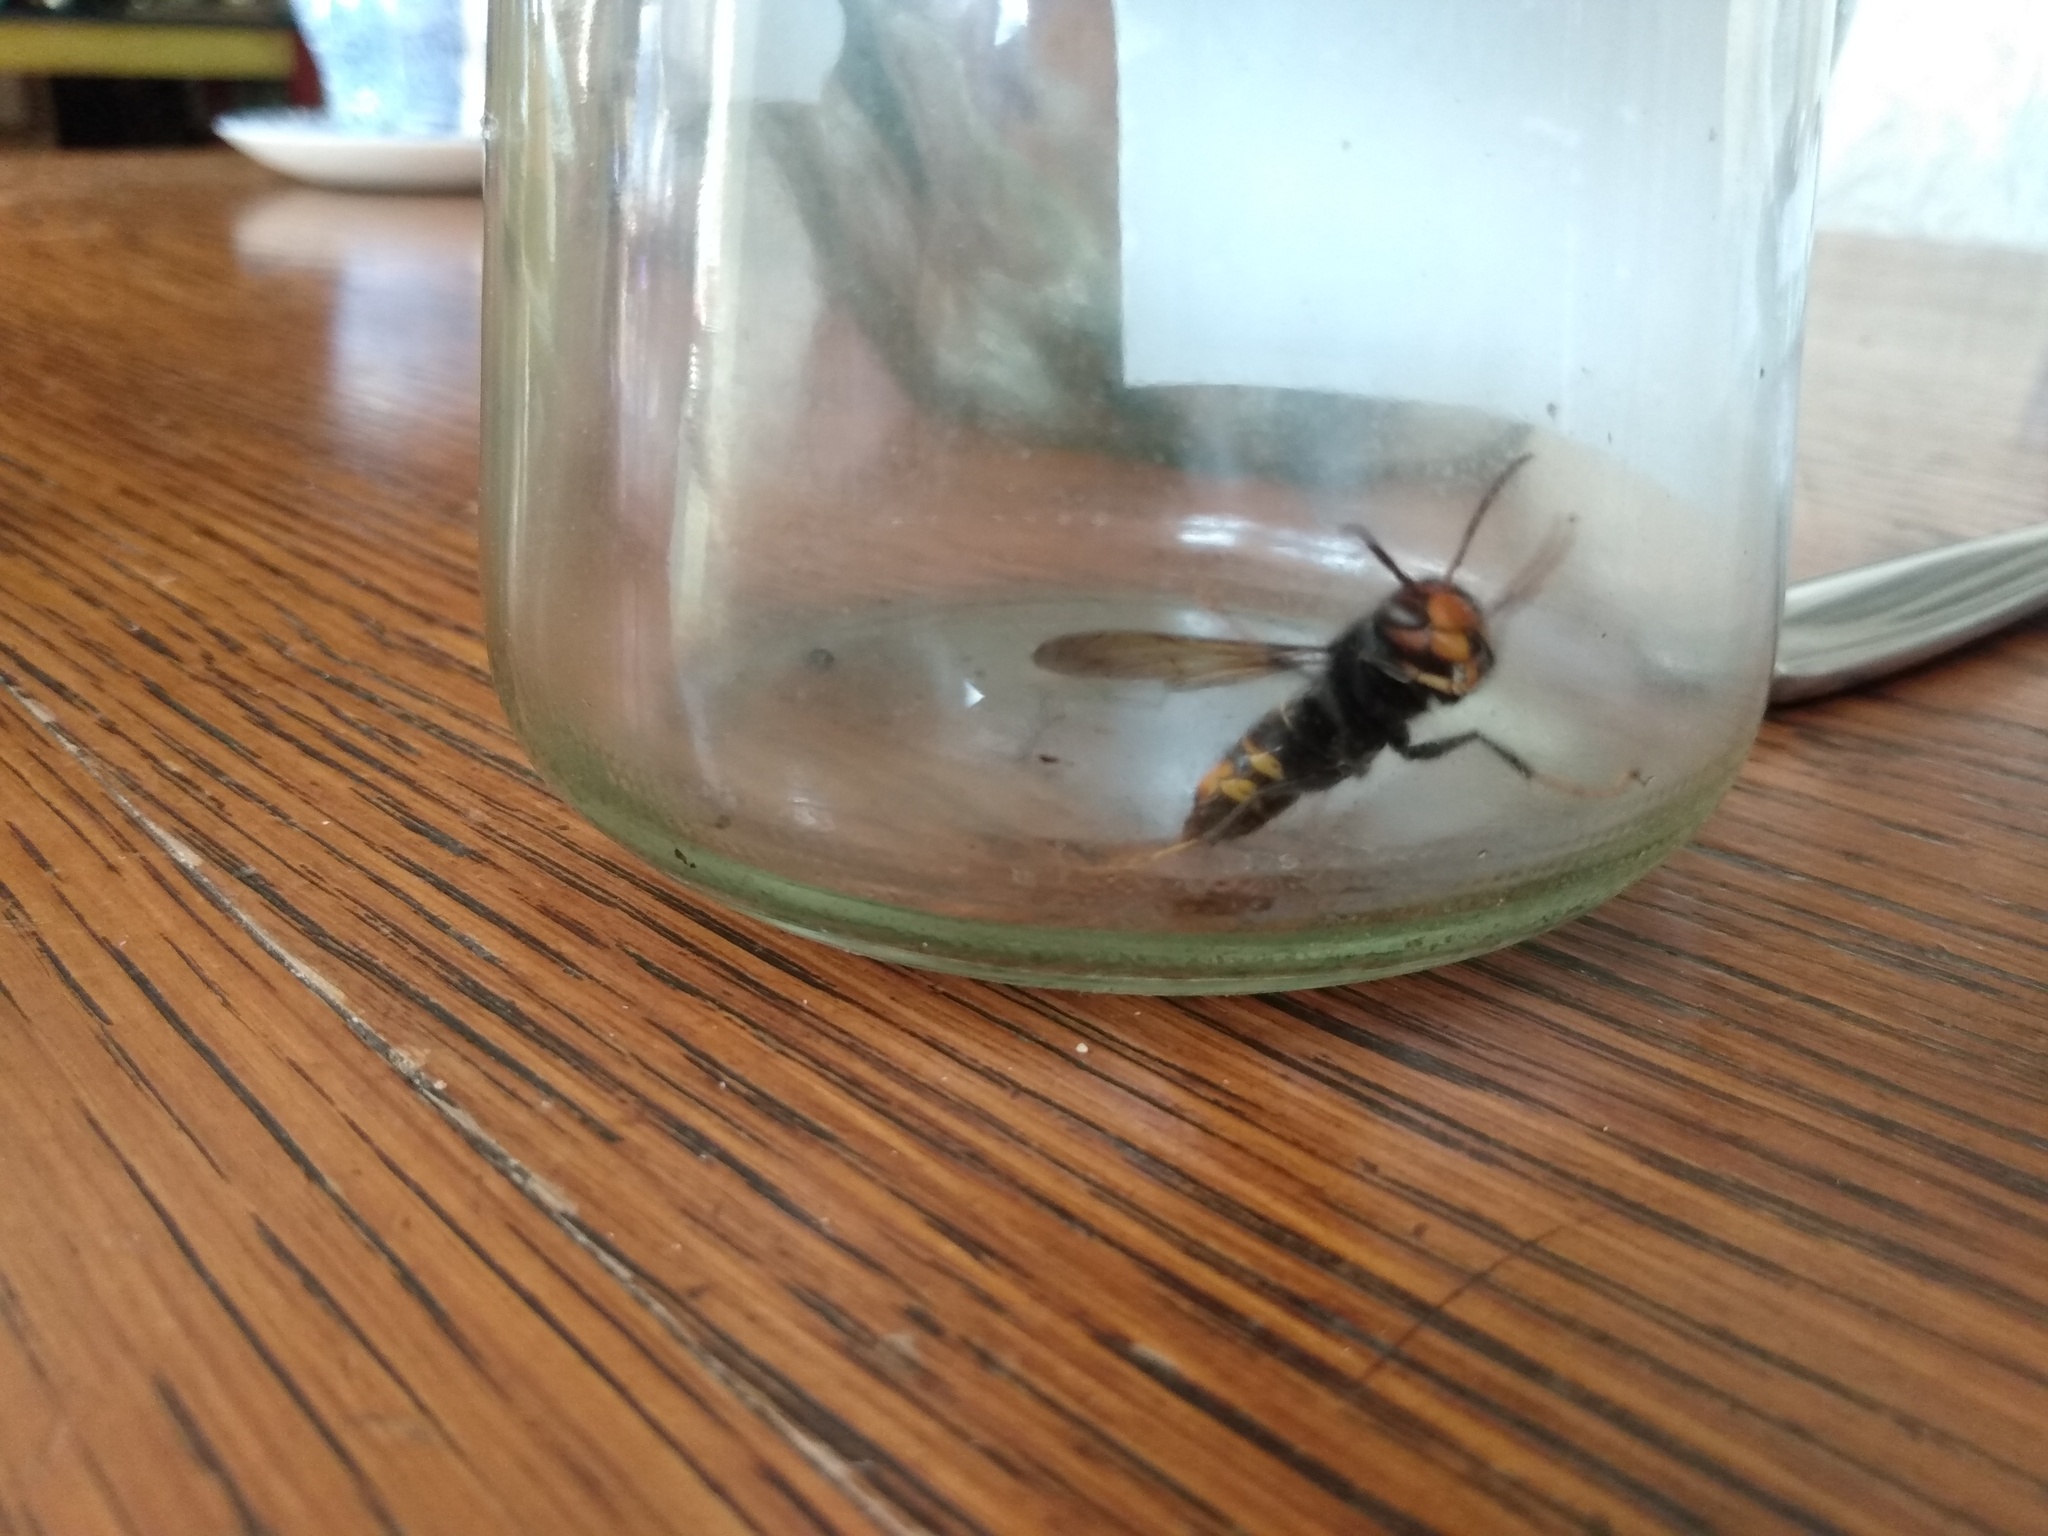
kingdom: Animalia
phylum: Arthropoda
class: Insecta
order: Hymenoptera
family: Vespidae
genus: Vespa
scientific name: Vespa velutina
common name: Asian hornet
